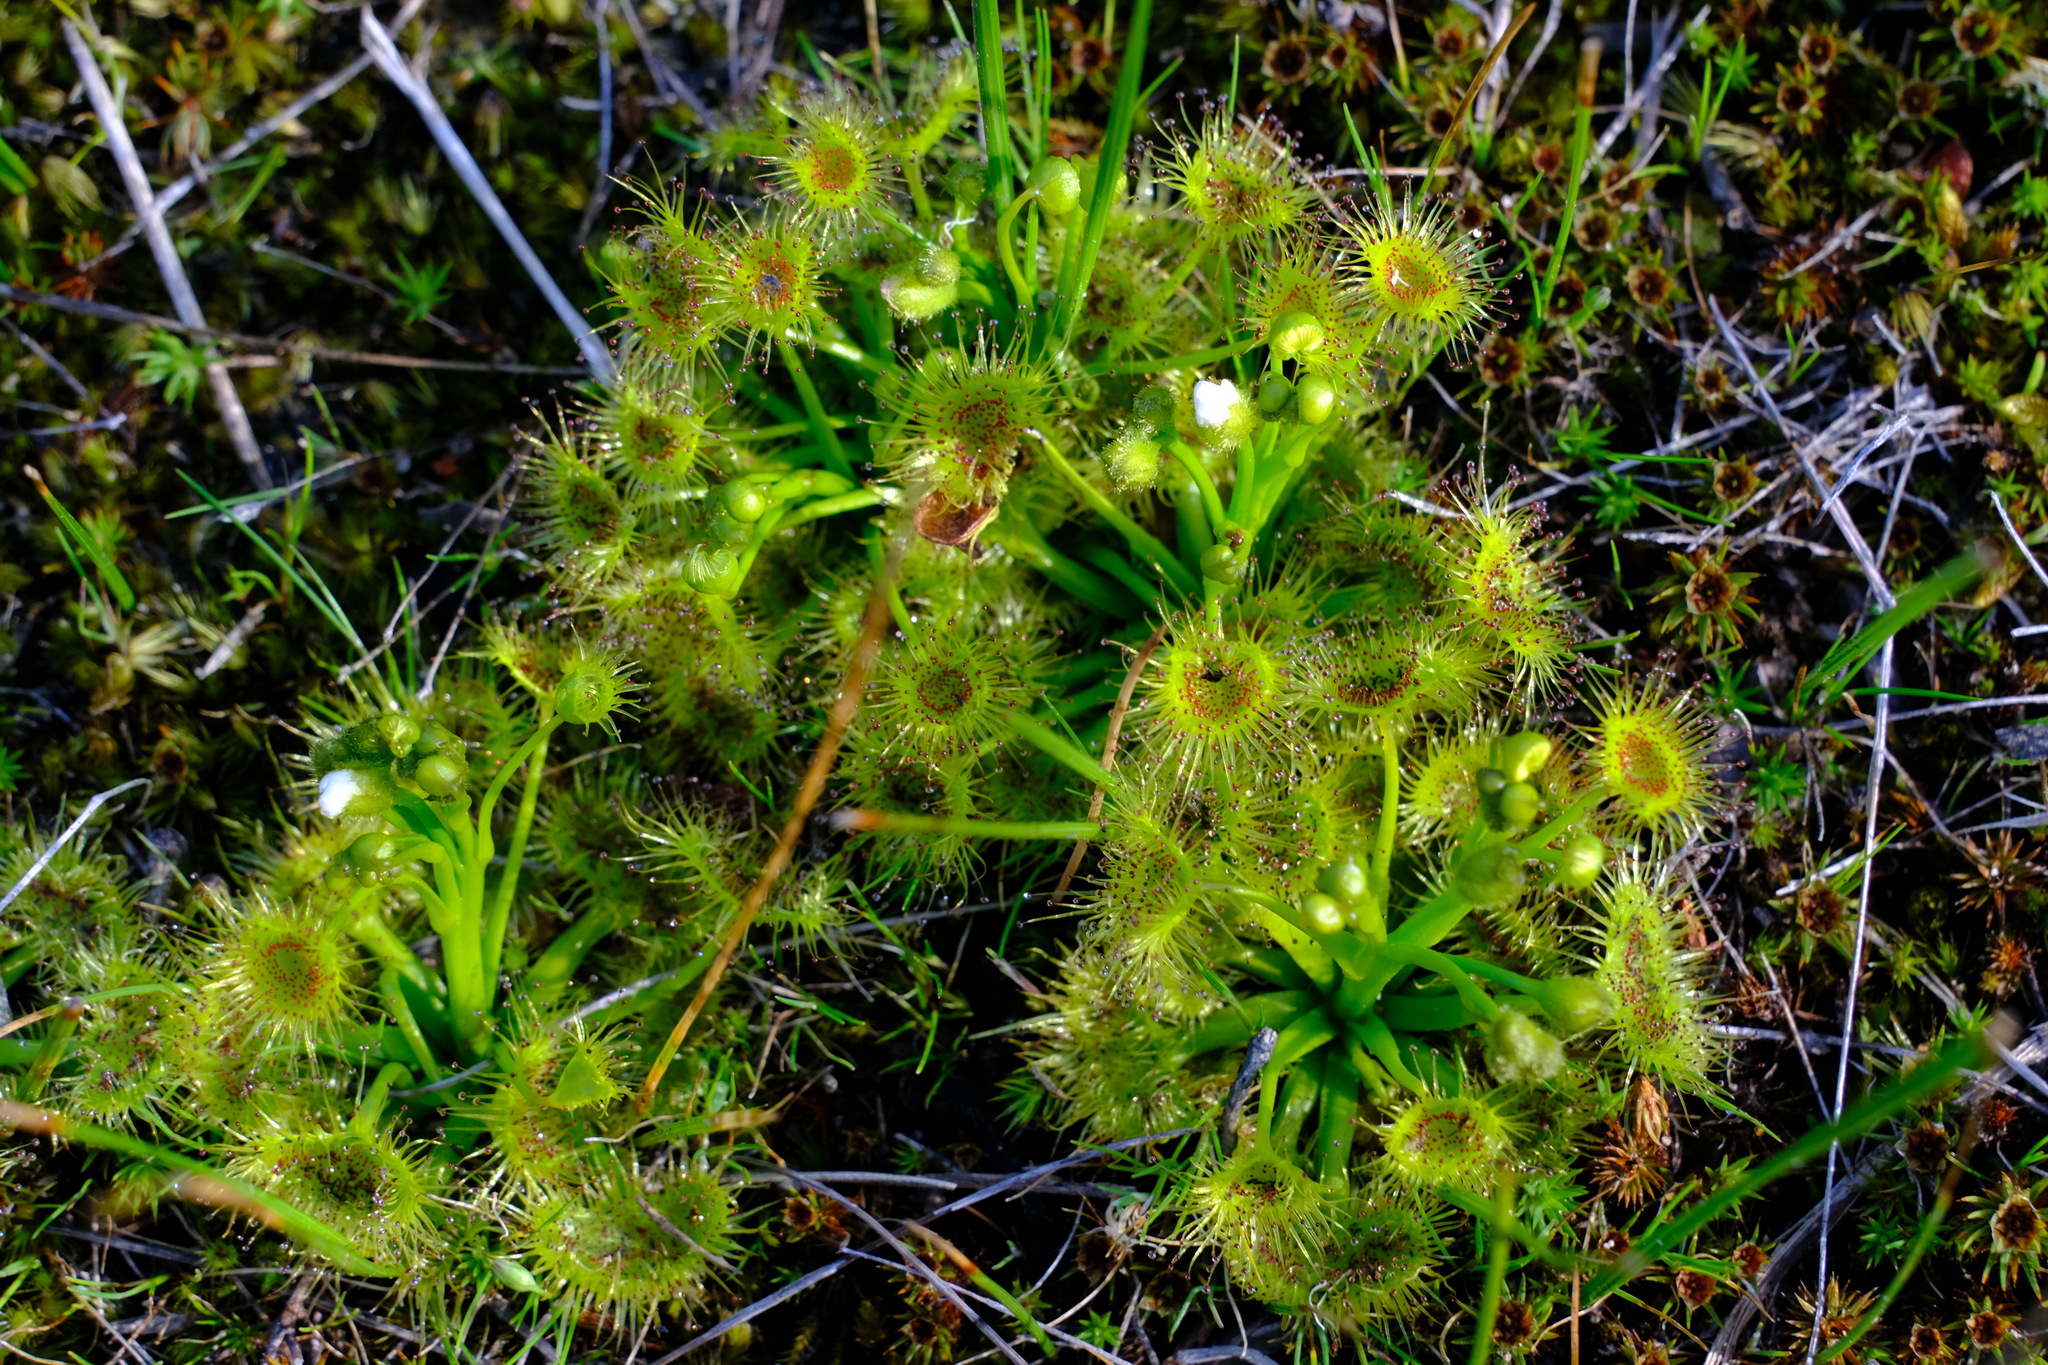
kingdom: Plantae
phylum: Tracheophyta
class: Magnoliopsida
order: Caryophyllales
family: Droseraceae
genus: Drosera
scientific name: Drosera hookeri
